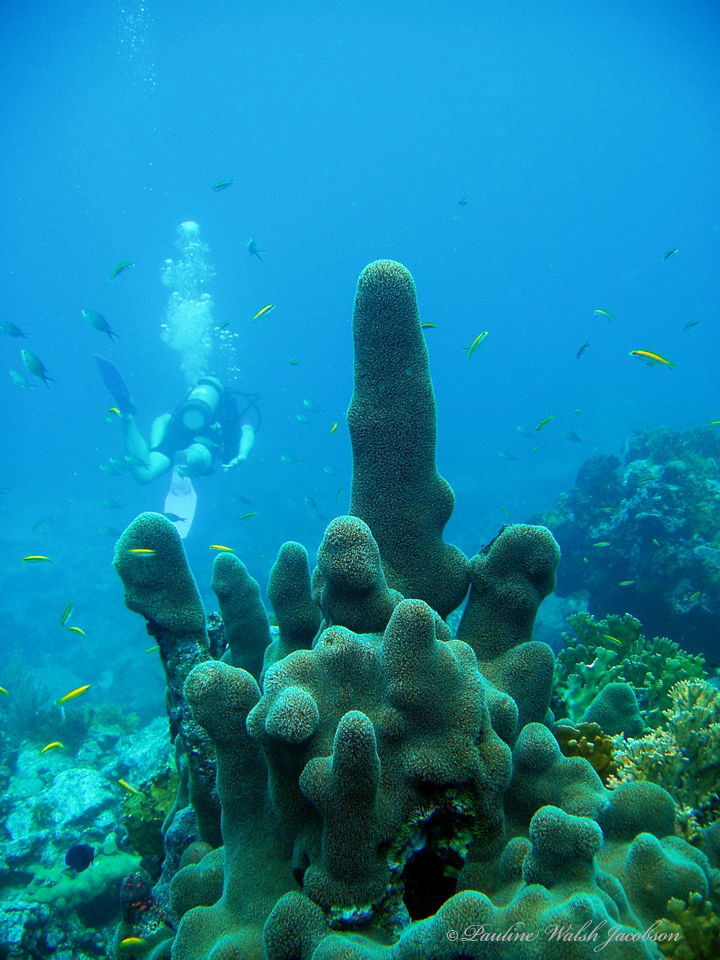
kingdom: Animalia
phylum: Cnidaria
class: Anthozoa
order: Scleractinia
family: Meandrinidae
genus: Dendrogyra
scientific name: Dendrogyra cylindrus
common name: Pillar coral
